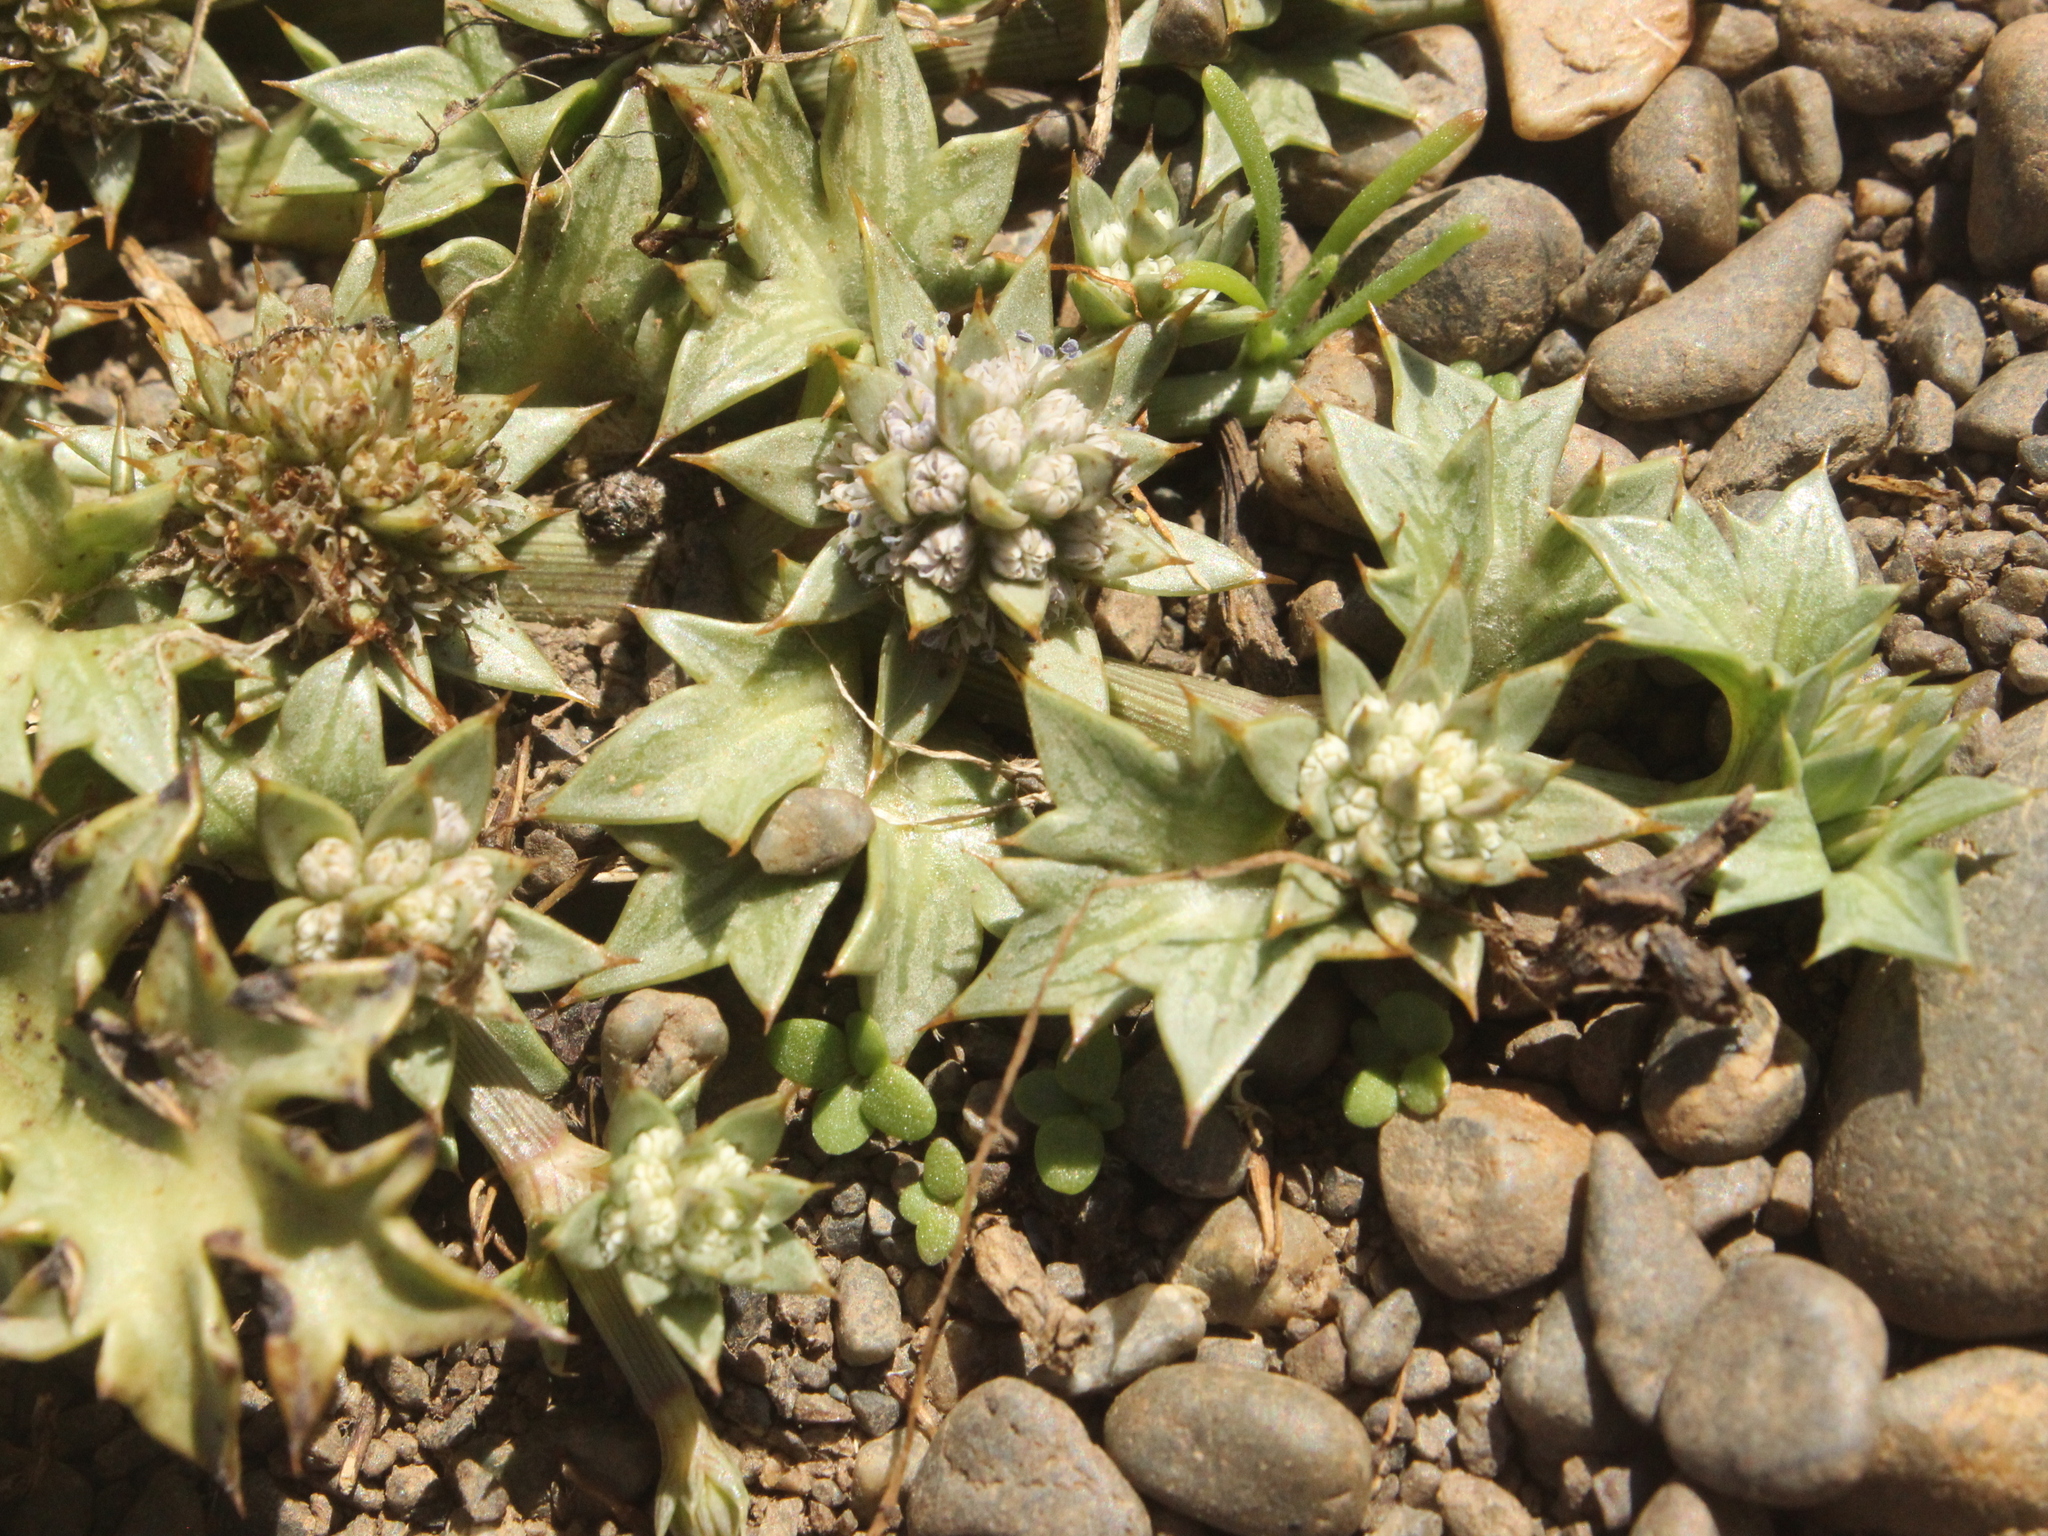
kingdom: Plantae
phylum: Tracheophyta
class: Magnoliopsida
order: Apiales
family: Apiaceae
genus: Eryngium
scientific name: Eryngium vesiculosum
